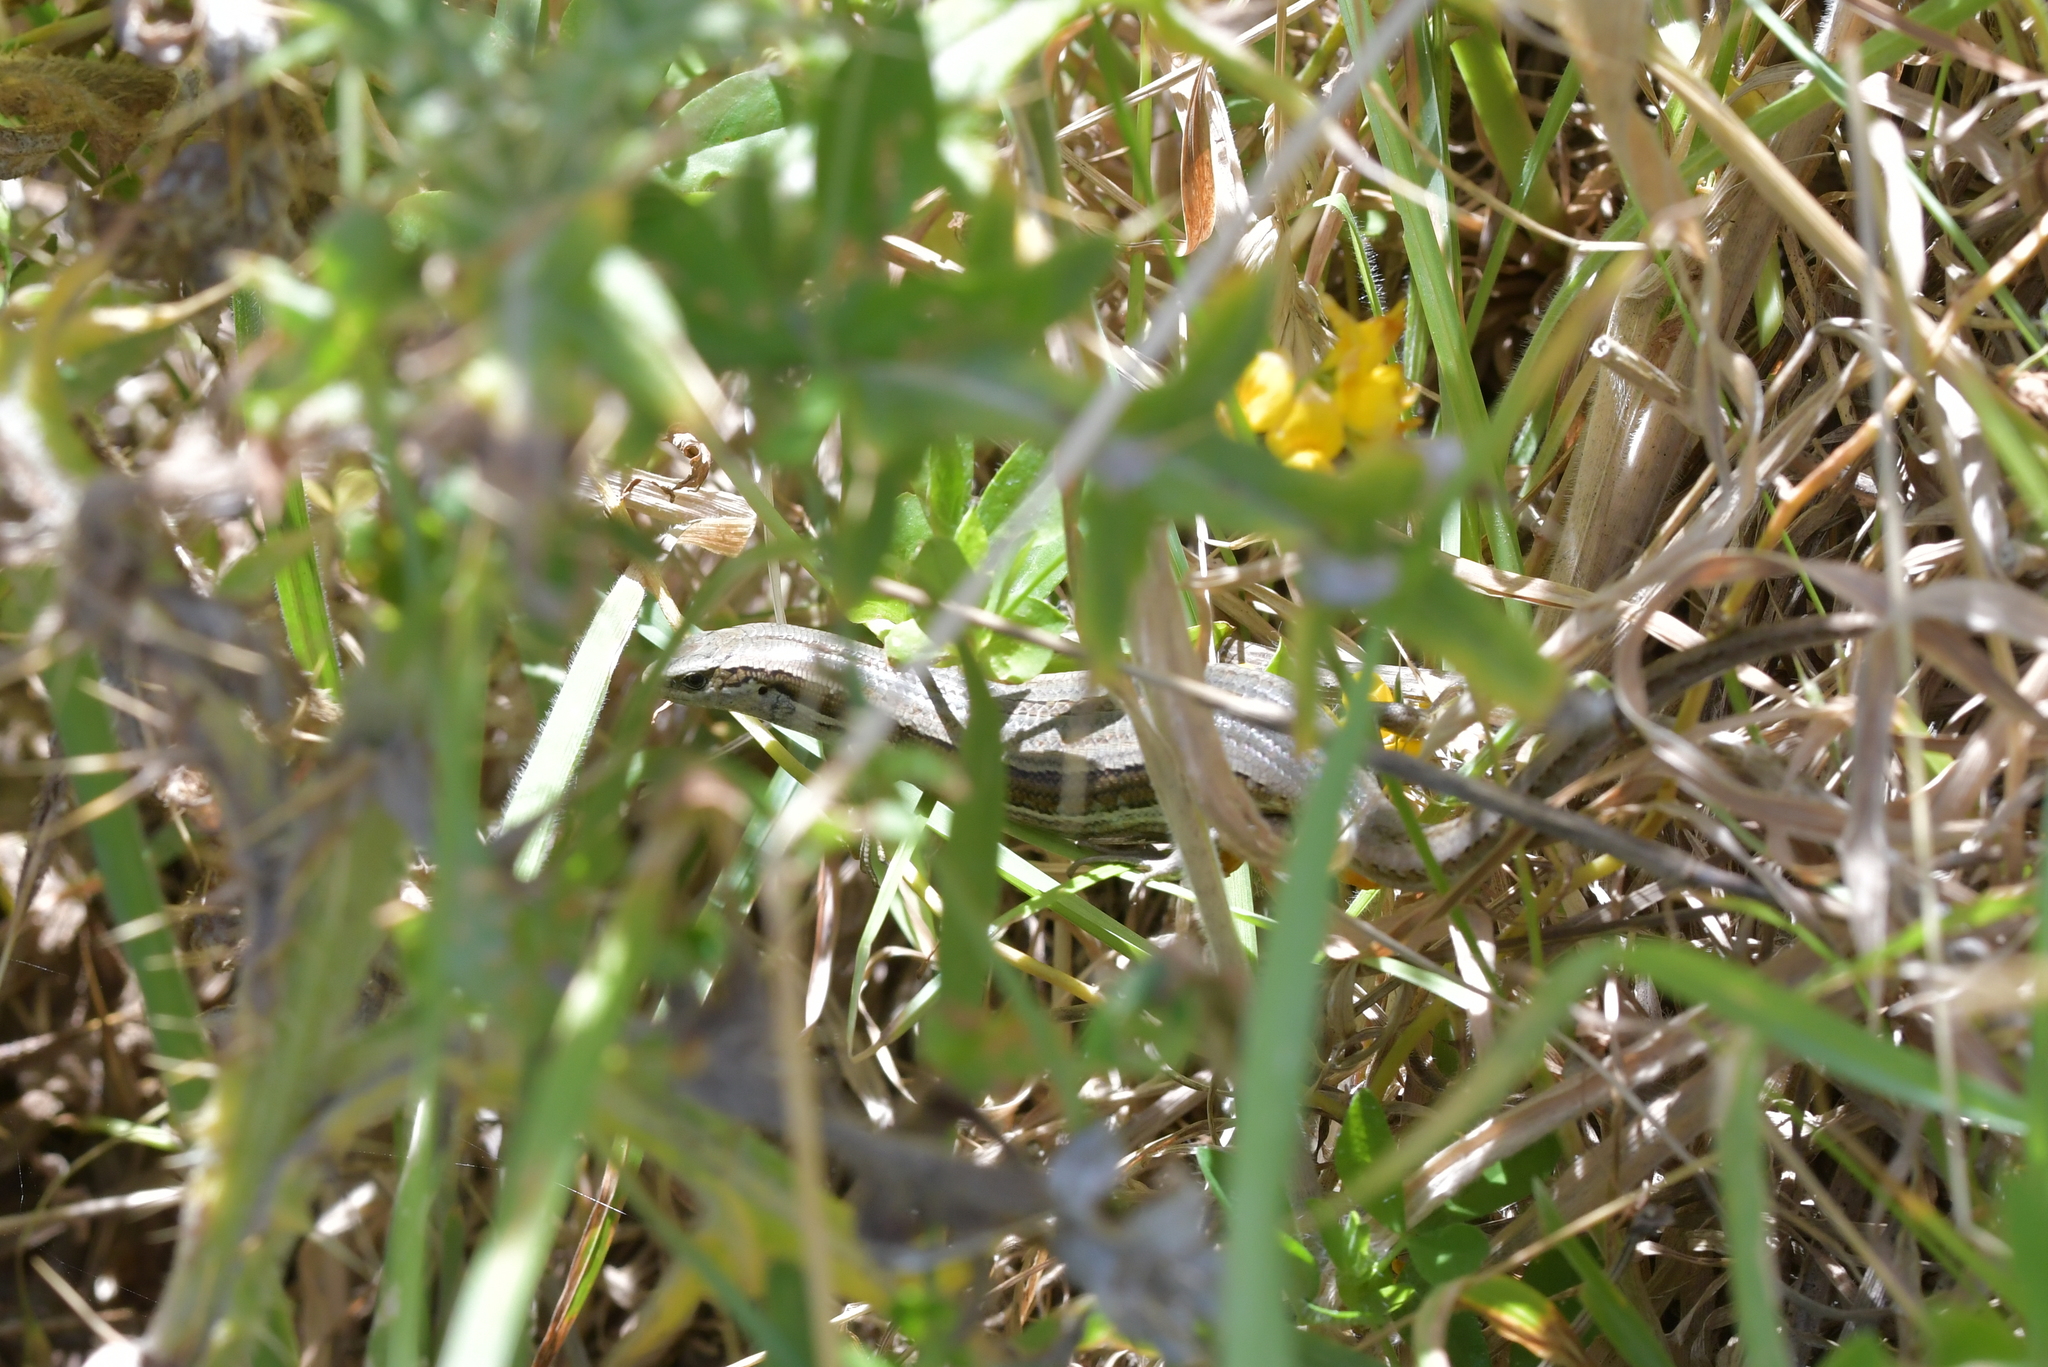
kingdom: Animalia
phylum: Chordata
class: Squamata
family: Scincidae
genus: Oligosoma
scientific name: Oligosoma polychroma
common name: Common new zealand skink
